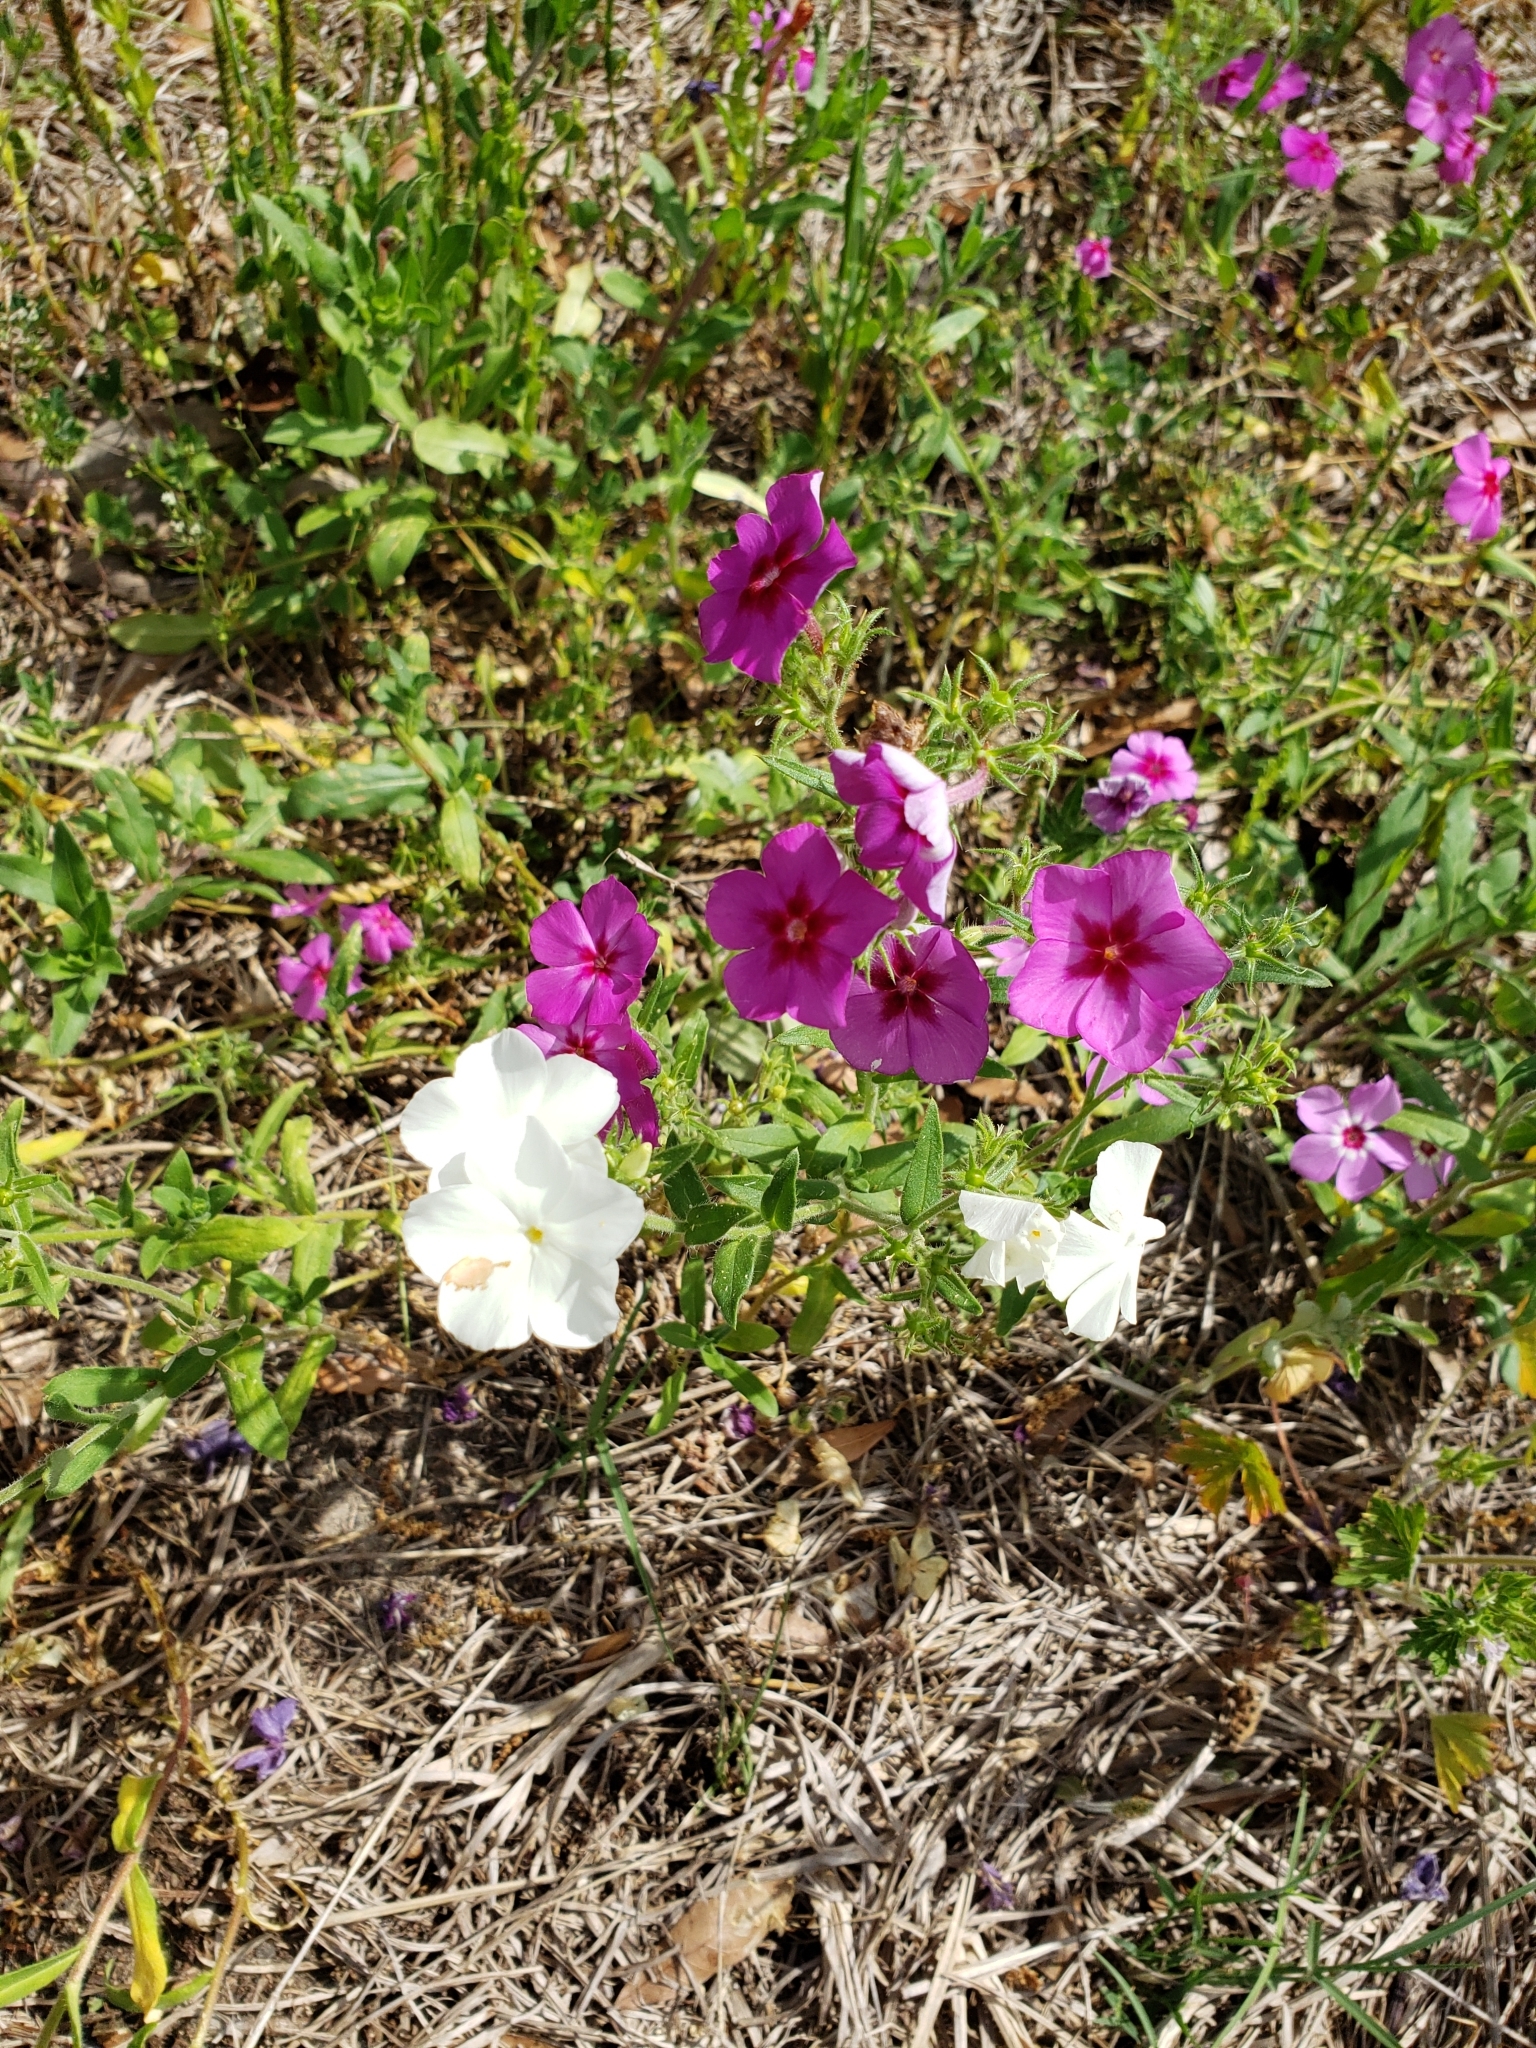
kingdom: Plantae
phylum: Tracheophyta
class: Magnoliopsida
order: Ericales
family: Polemoniaceae
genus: Phlox
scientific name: Phlox drummondii
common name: Drummond's phlox
